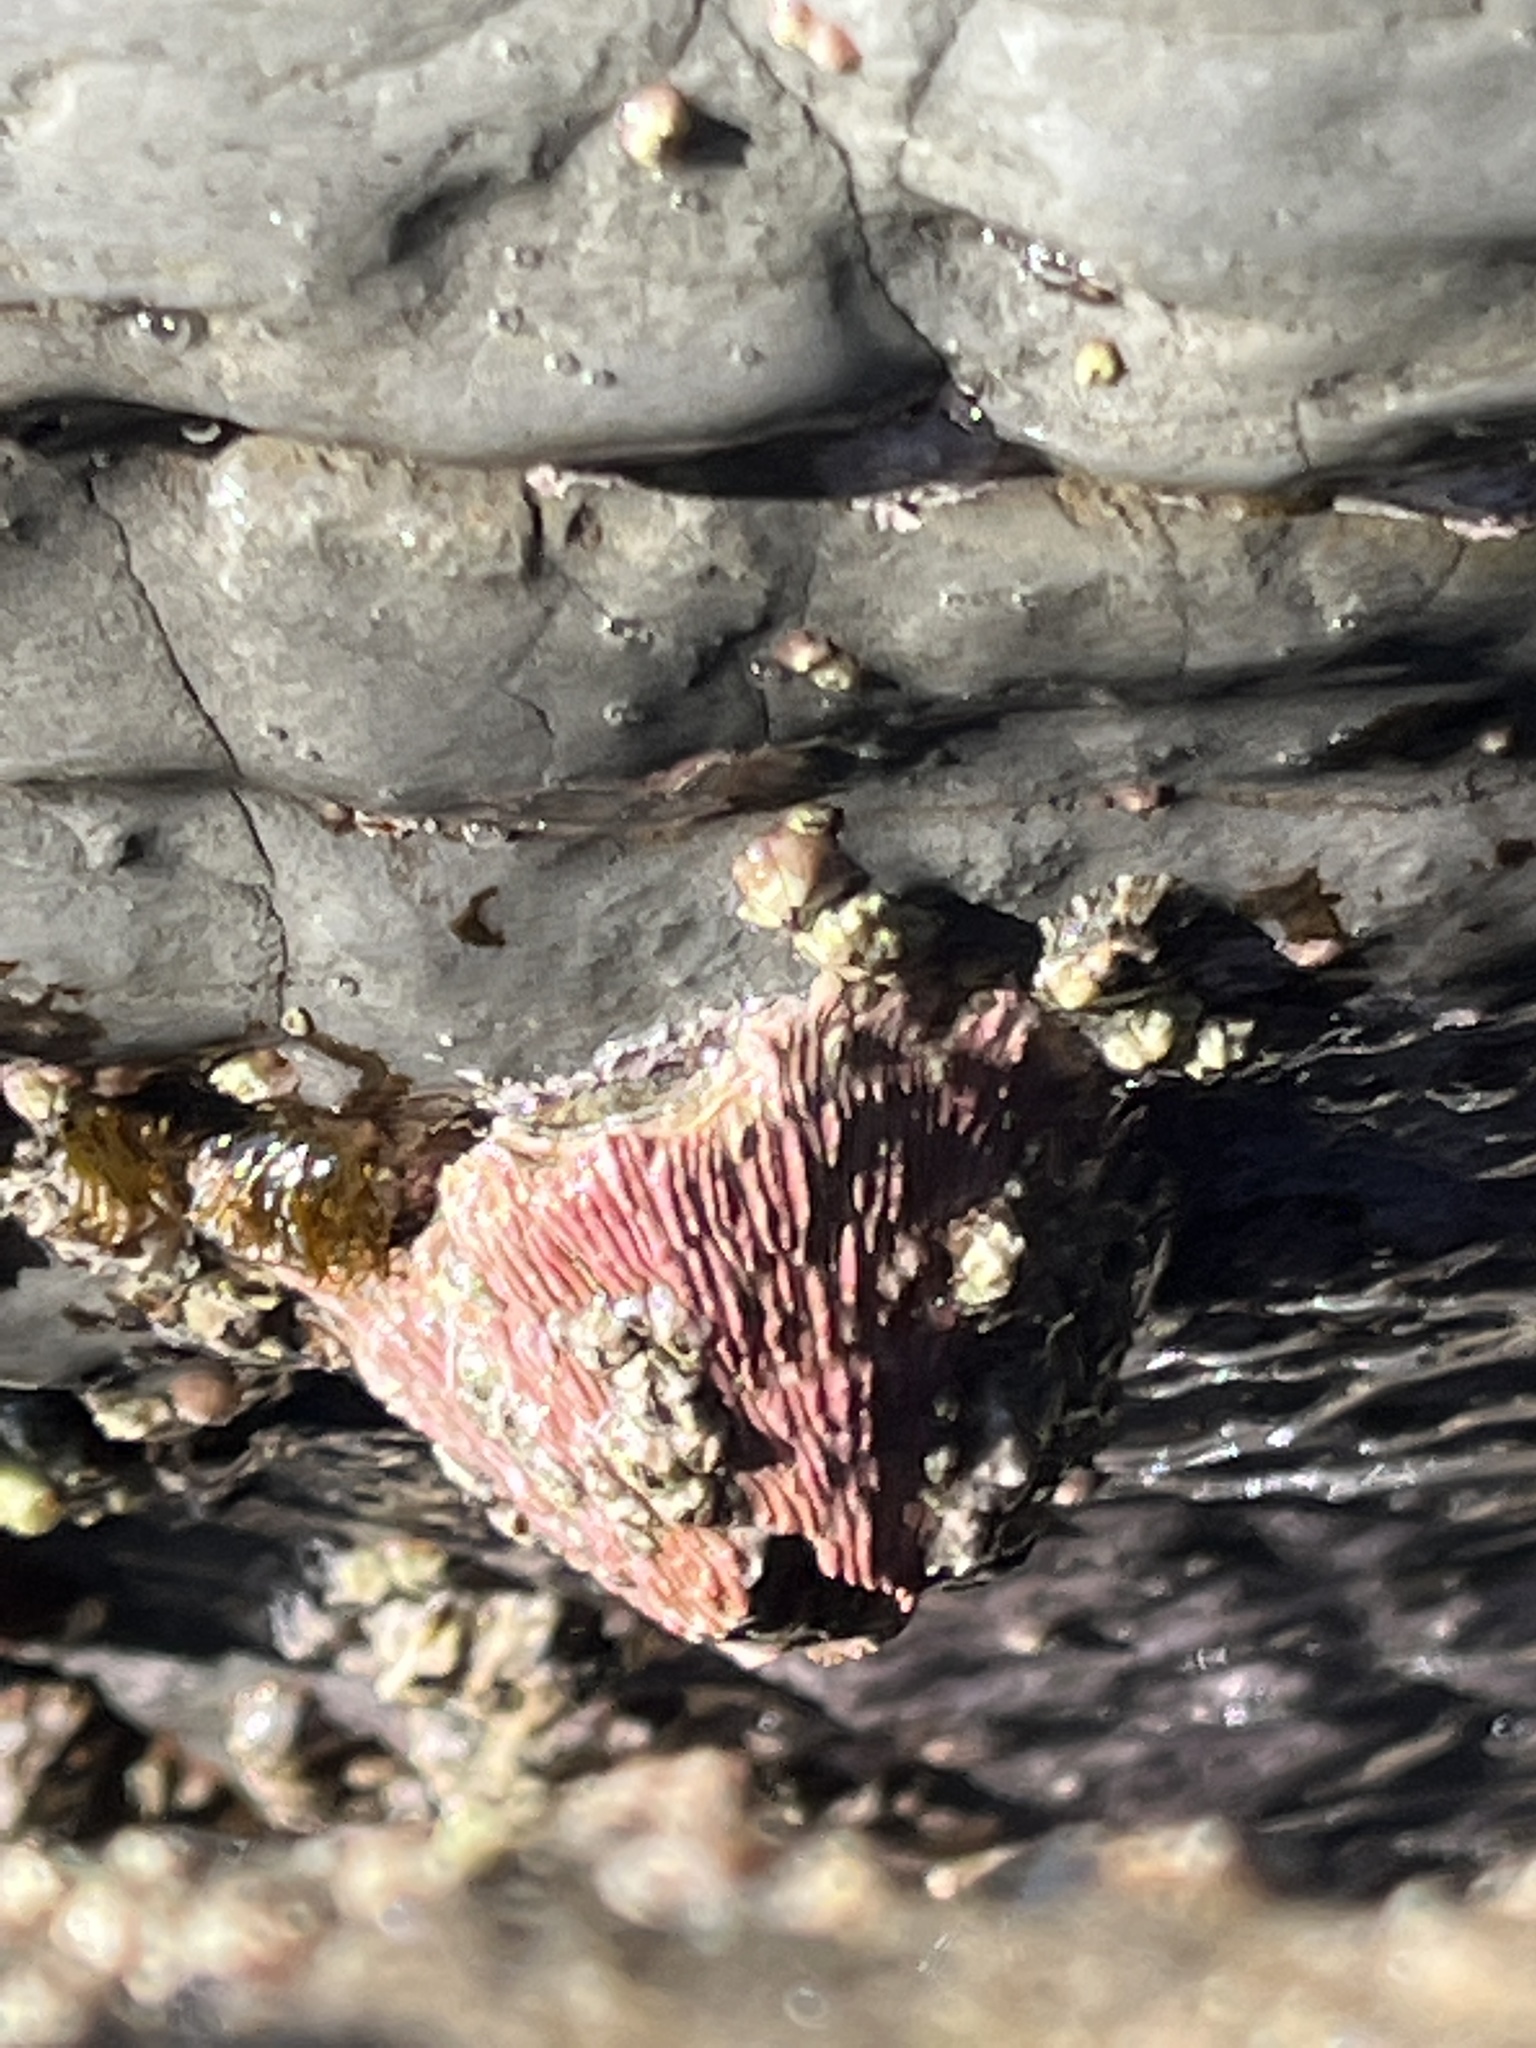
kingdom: Animalia
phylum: Arthropoda
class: Maxillopoda
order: Sessilia
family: Tetraclitidae
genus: Tetraclita
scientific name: Tetraclita rubescens
